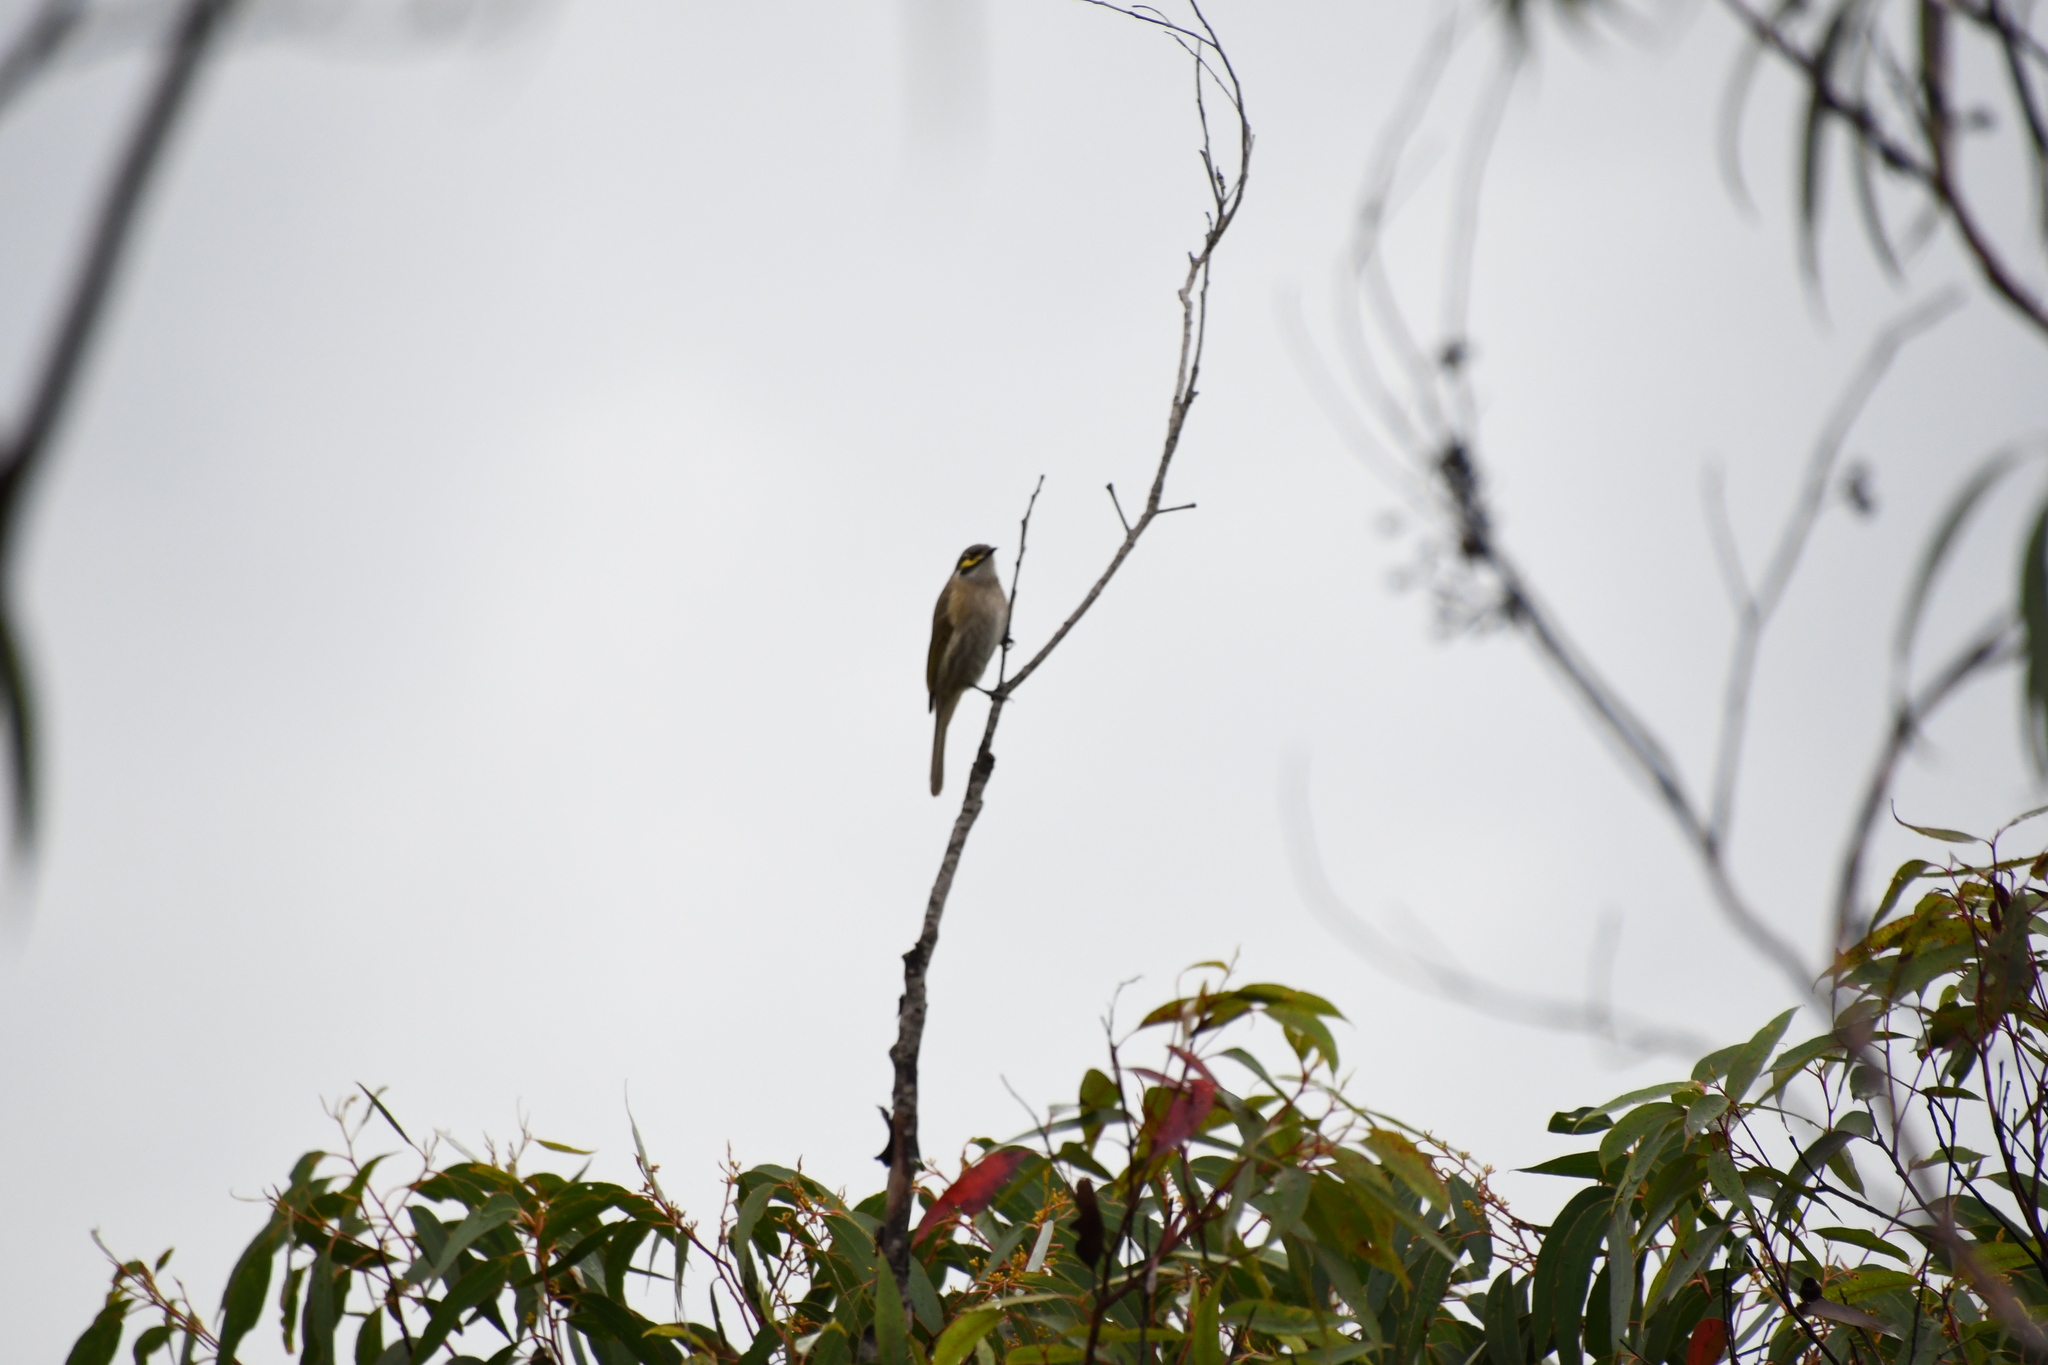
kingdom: Animalia
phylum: Chordata
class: Aves
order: Passeriformes
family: Meliphagidae
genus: Caligavis
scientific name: Caligavis chrysops
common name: Yellow-faced honeyeater
